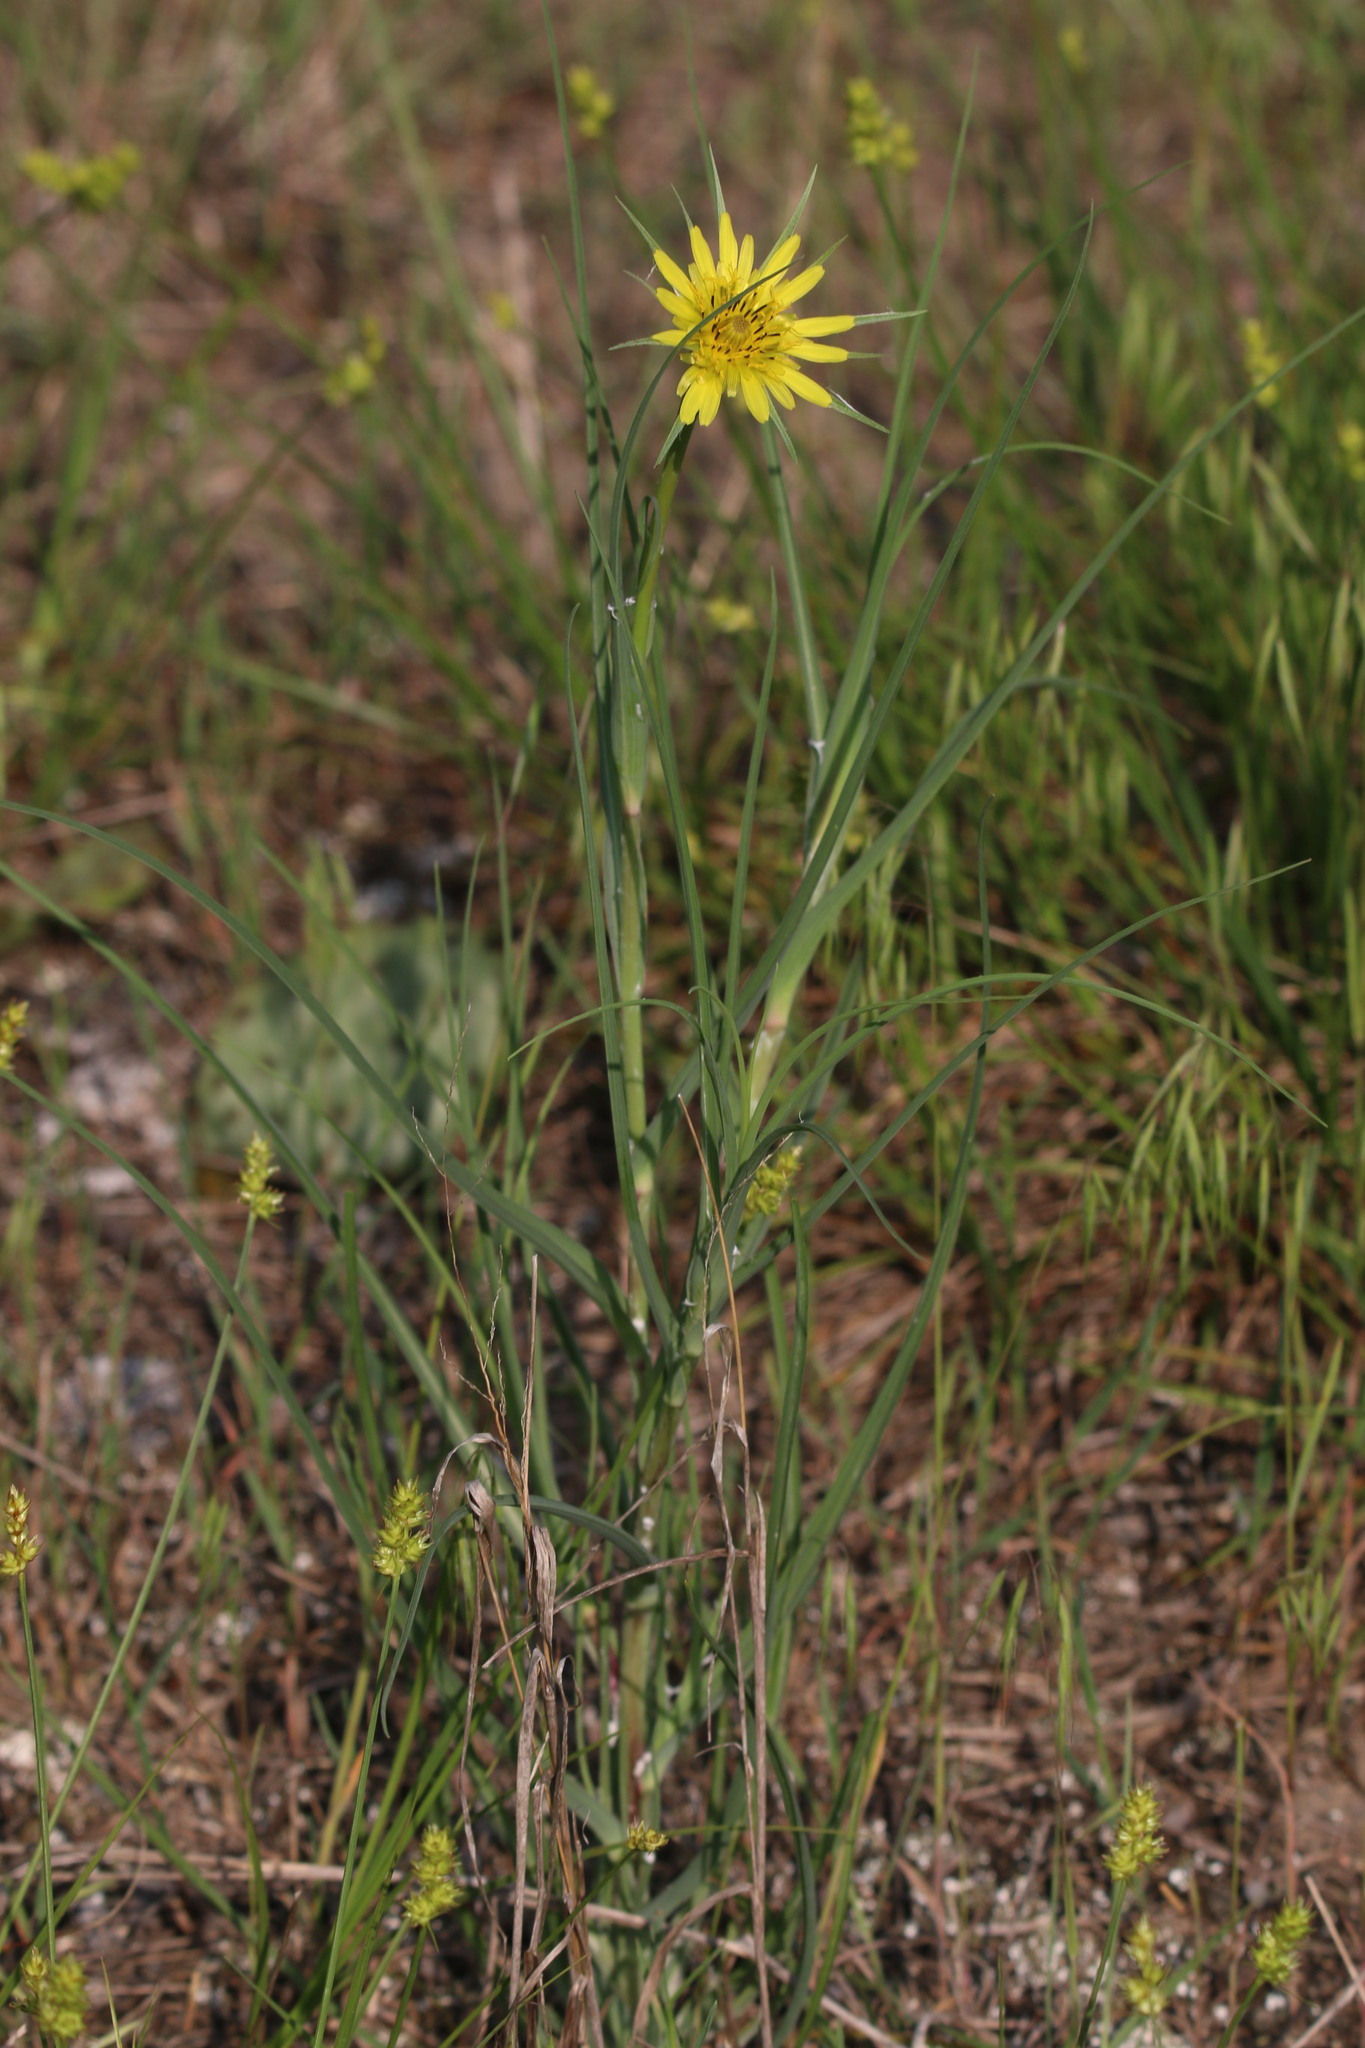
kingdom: Plantae
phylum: Tracheophyta
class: Magnoliopsida
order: Asterales
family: Asteraceae
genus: Tragopogon
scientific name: Tragopogon dubius
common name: Yellow salsify
